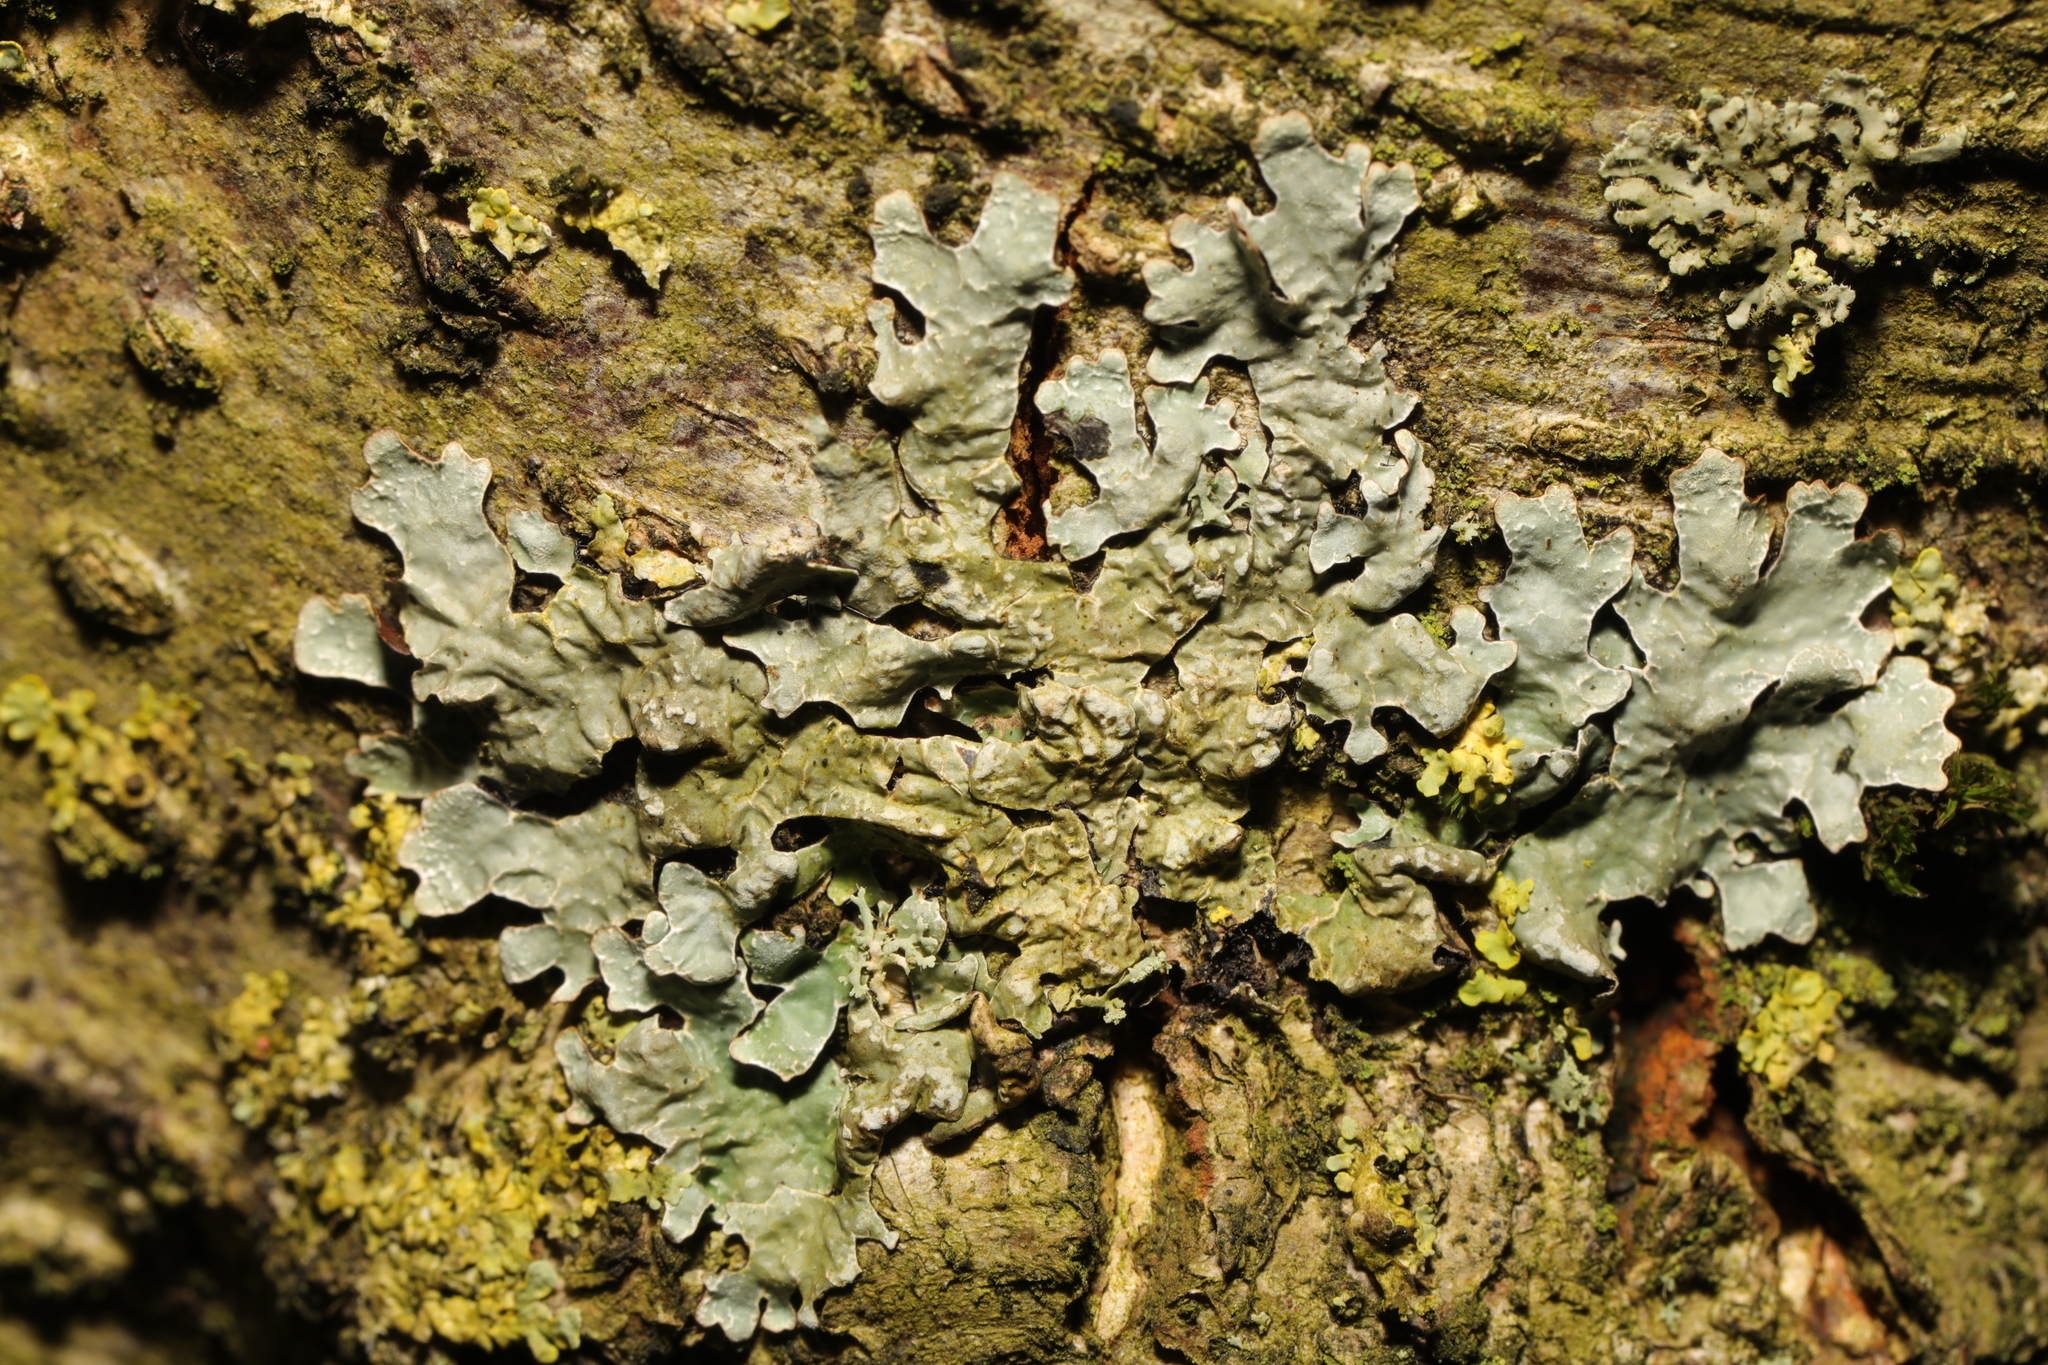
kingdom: Fungi
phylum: Ascomycota
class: Lecanoromycetes
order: Lecanorales
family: Parmeliaceae
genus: Parmelia
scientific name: Parmelia sulcata
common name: Netted shield lichen
